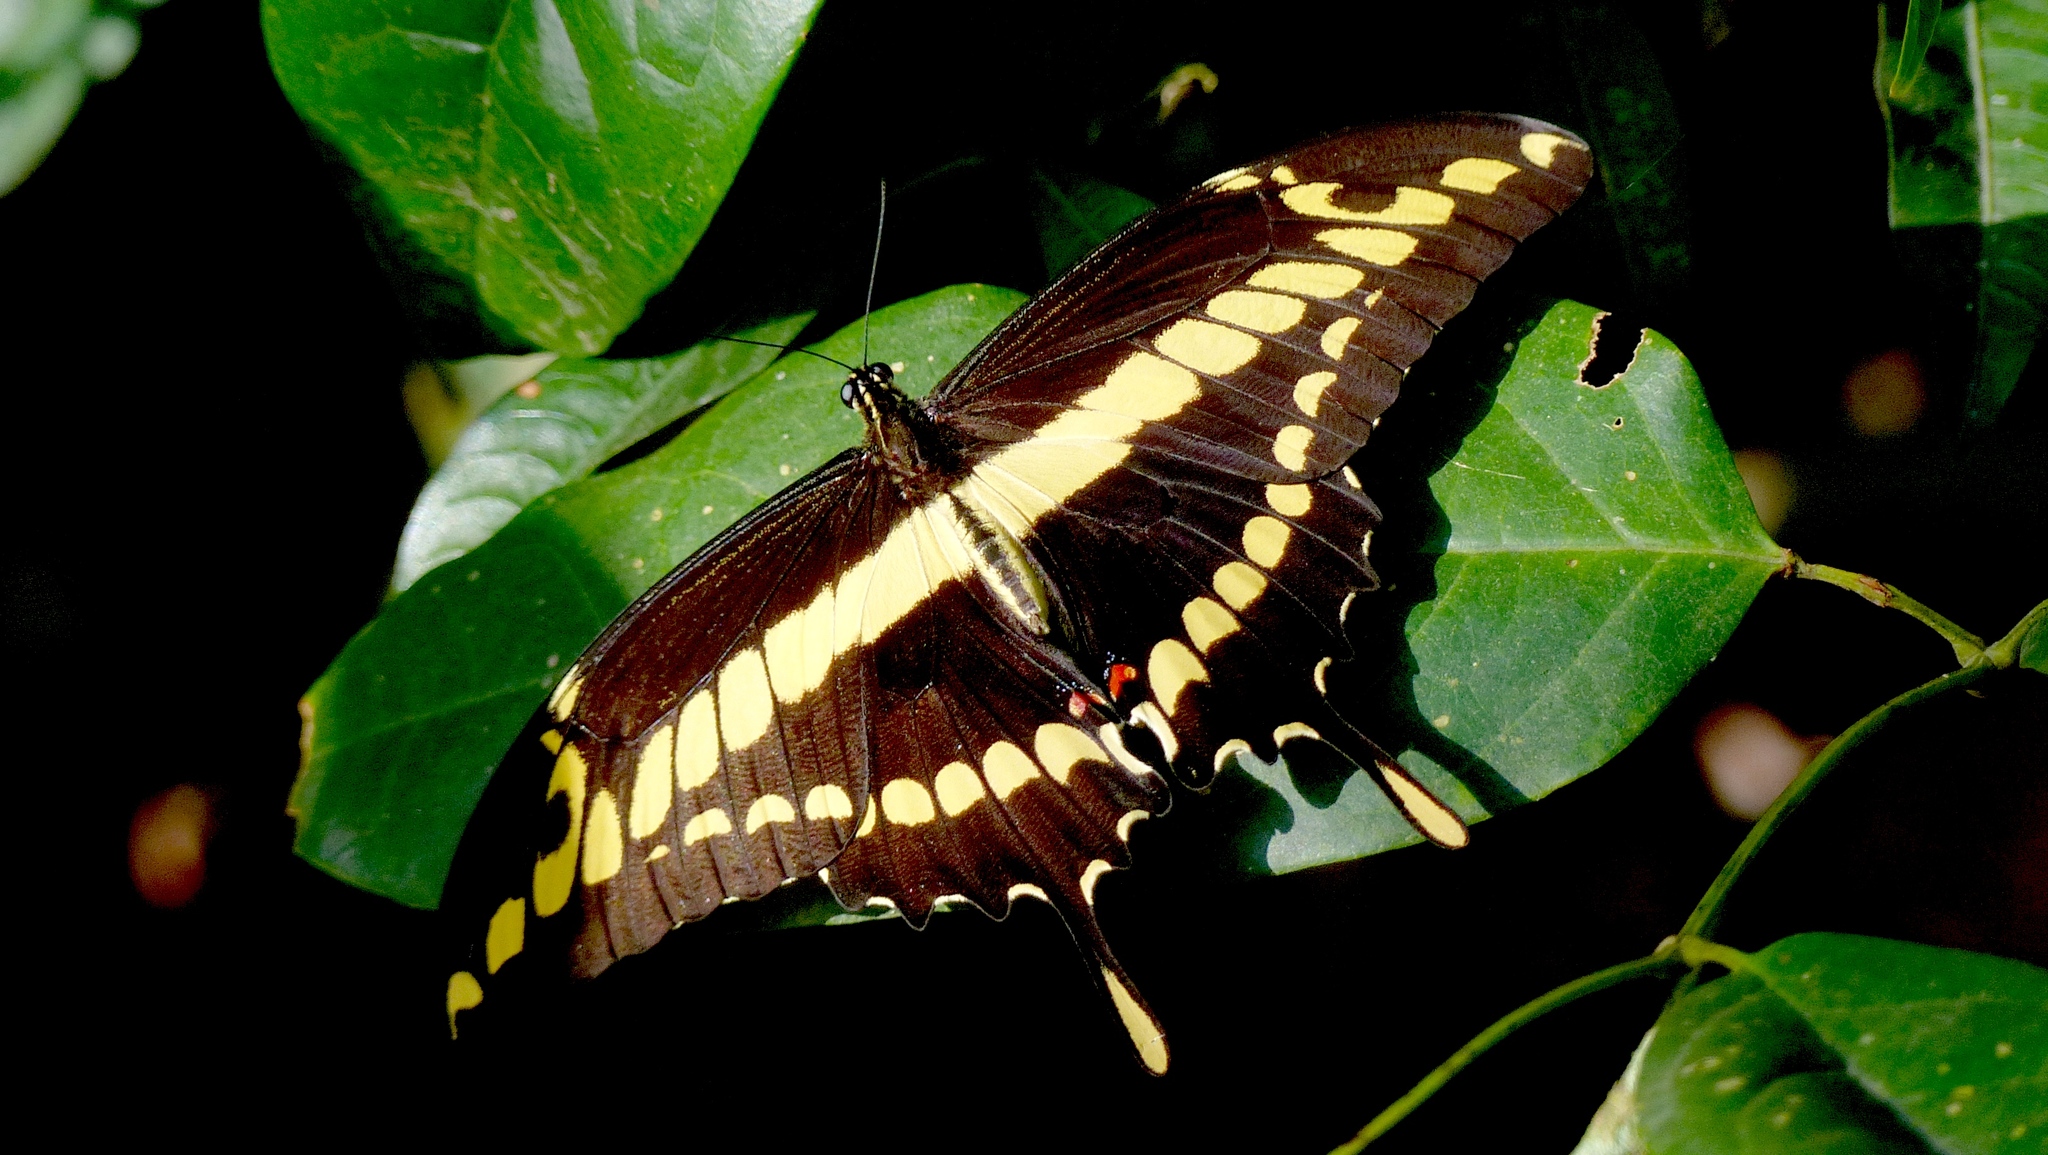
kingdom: Animalia
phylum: Arthropoda
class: Insecta
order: Lepidoptera
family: Papilionidae
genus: Papilio
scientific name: Papilio thoas
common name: King swallowtail
